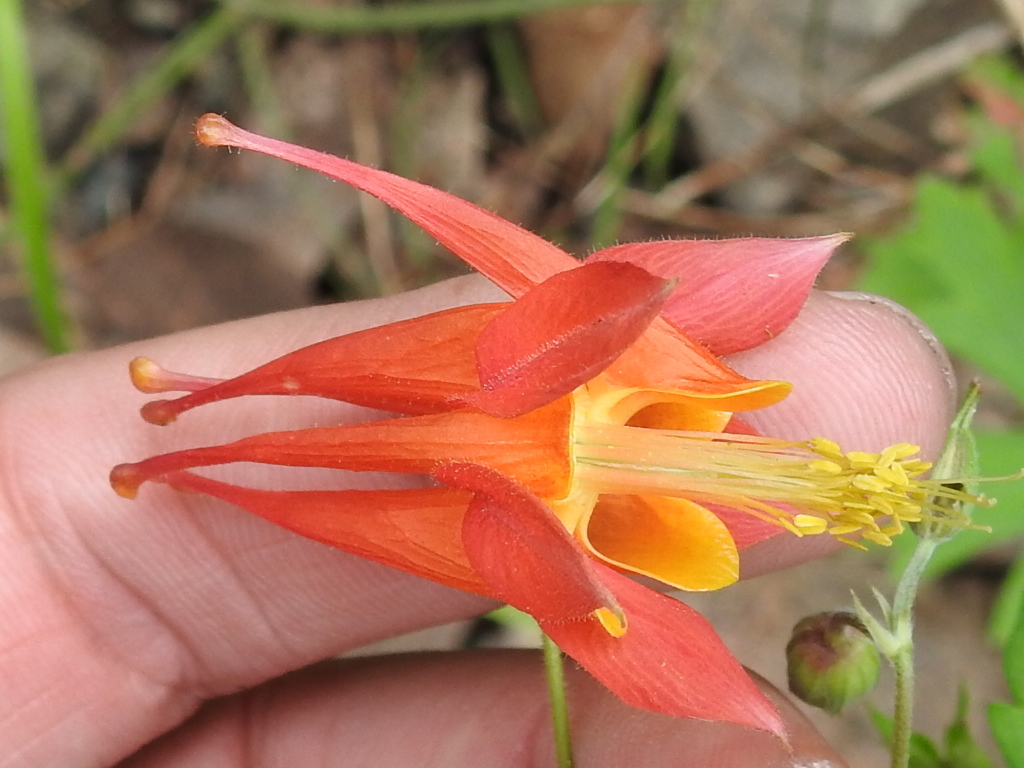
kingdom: Plantae
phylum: Tracheophyta
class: Magnoliopsida
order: Ranunculales
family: Ranunculaceae
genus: Aquilegia
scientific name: Aquilegia desertorum
